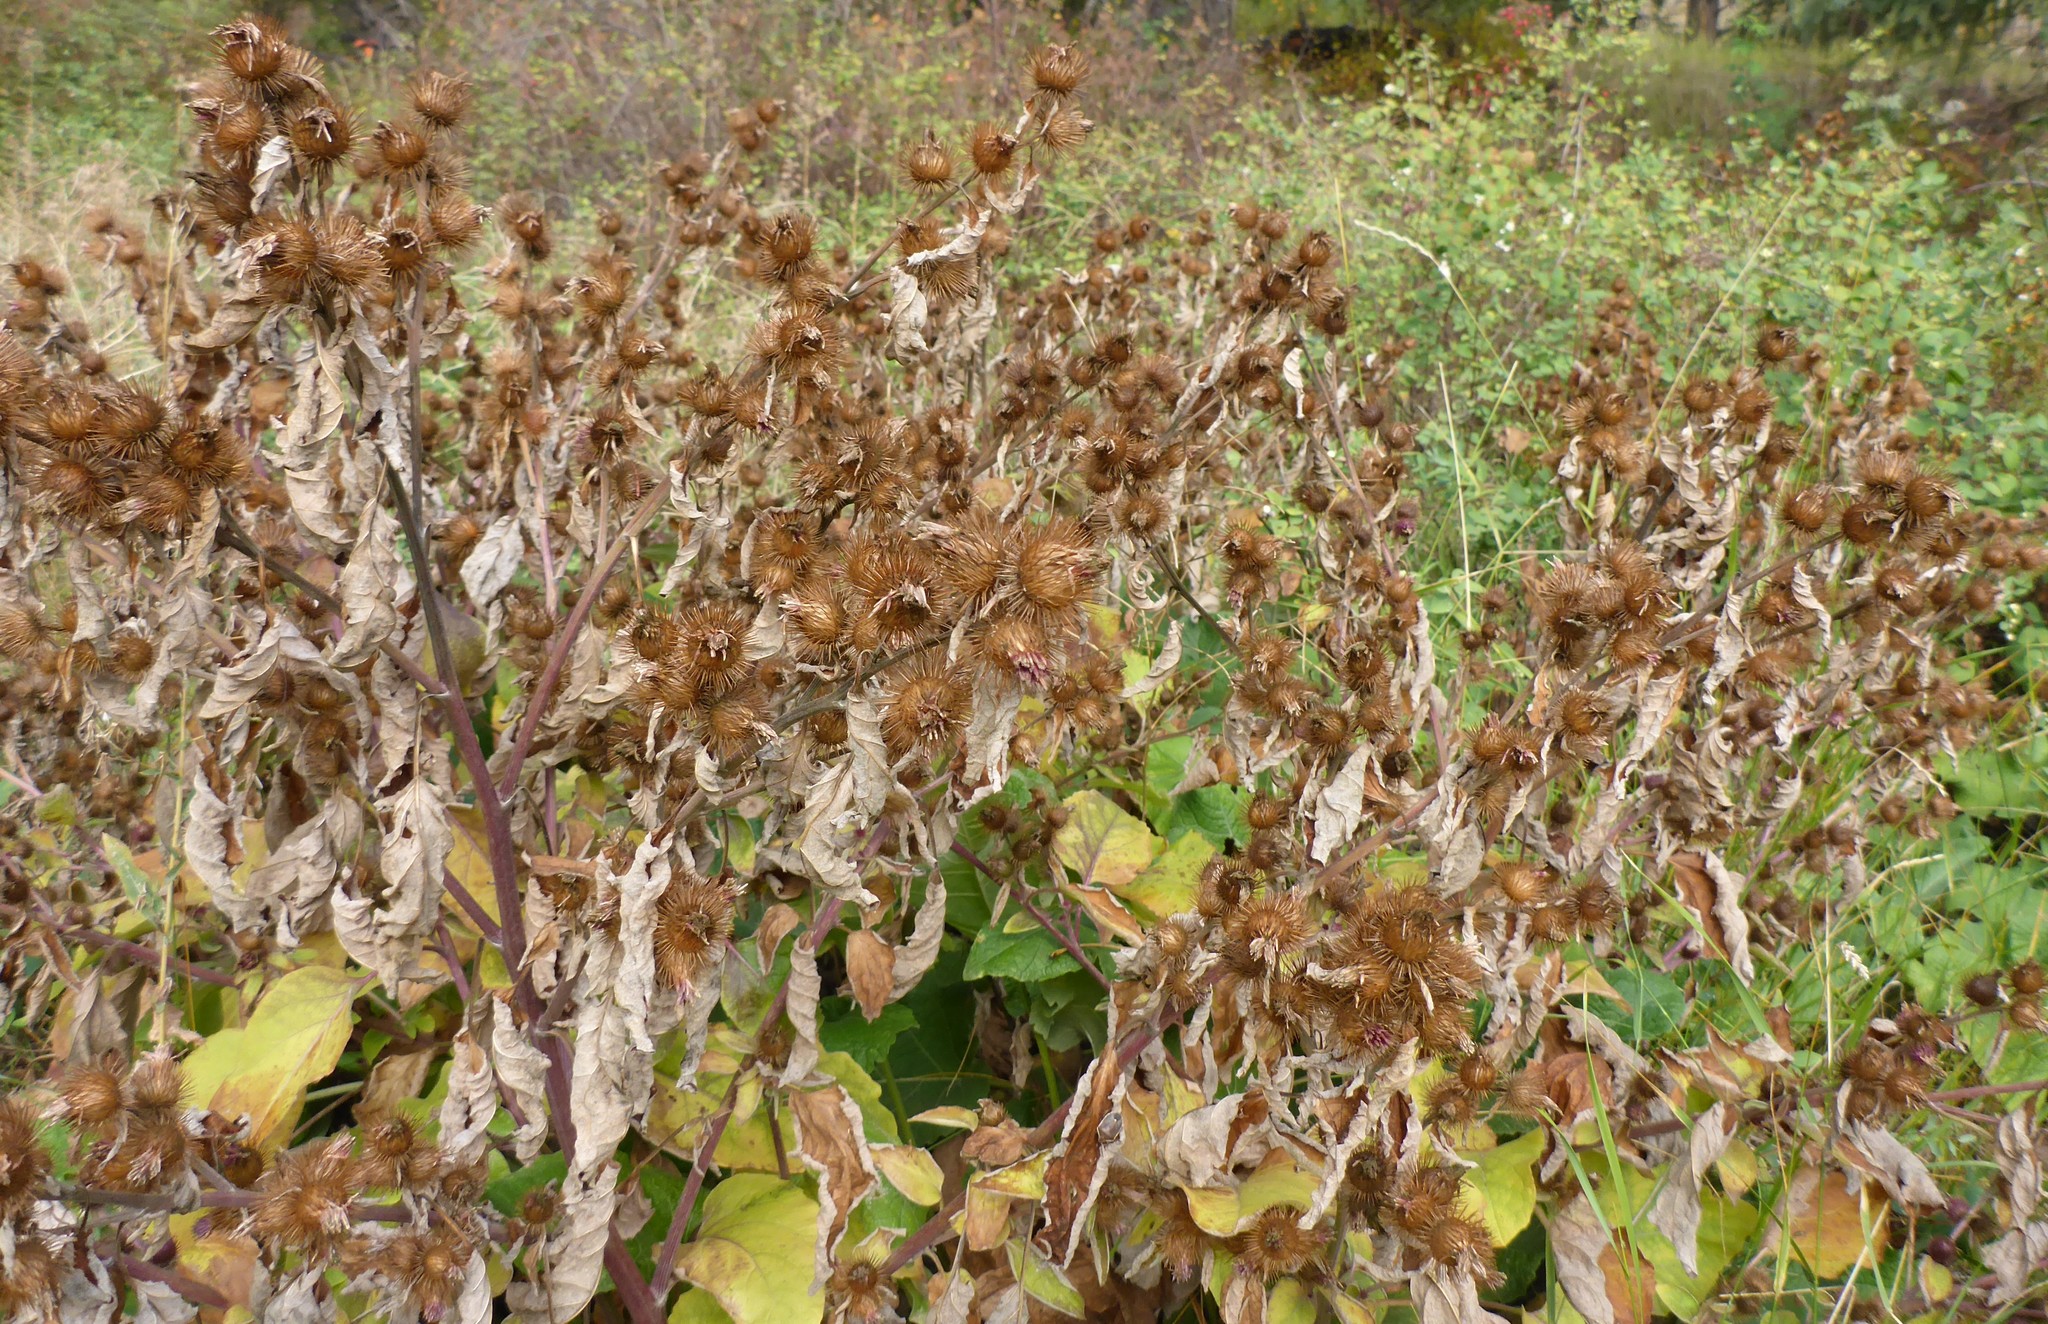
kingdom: Plantae
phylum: Tracheophyta
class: Magnoliopsida
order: Asterales
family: Asteraceae
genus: Arctium
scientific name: Arctium minus
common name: Lesser burdock
